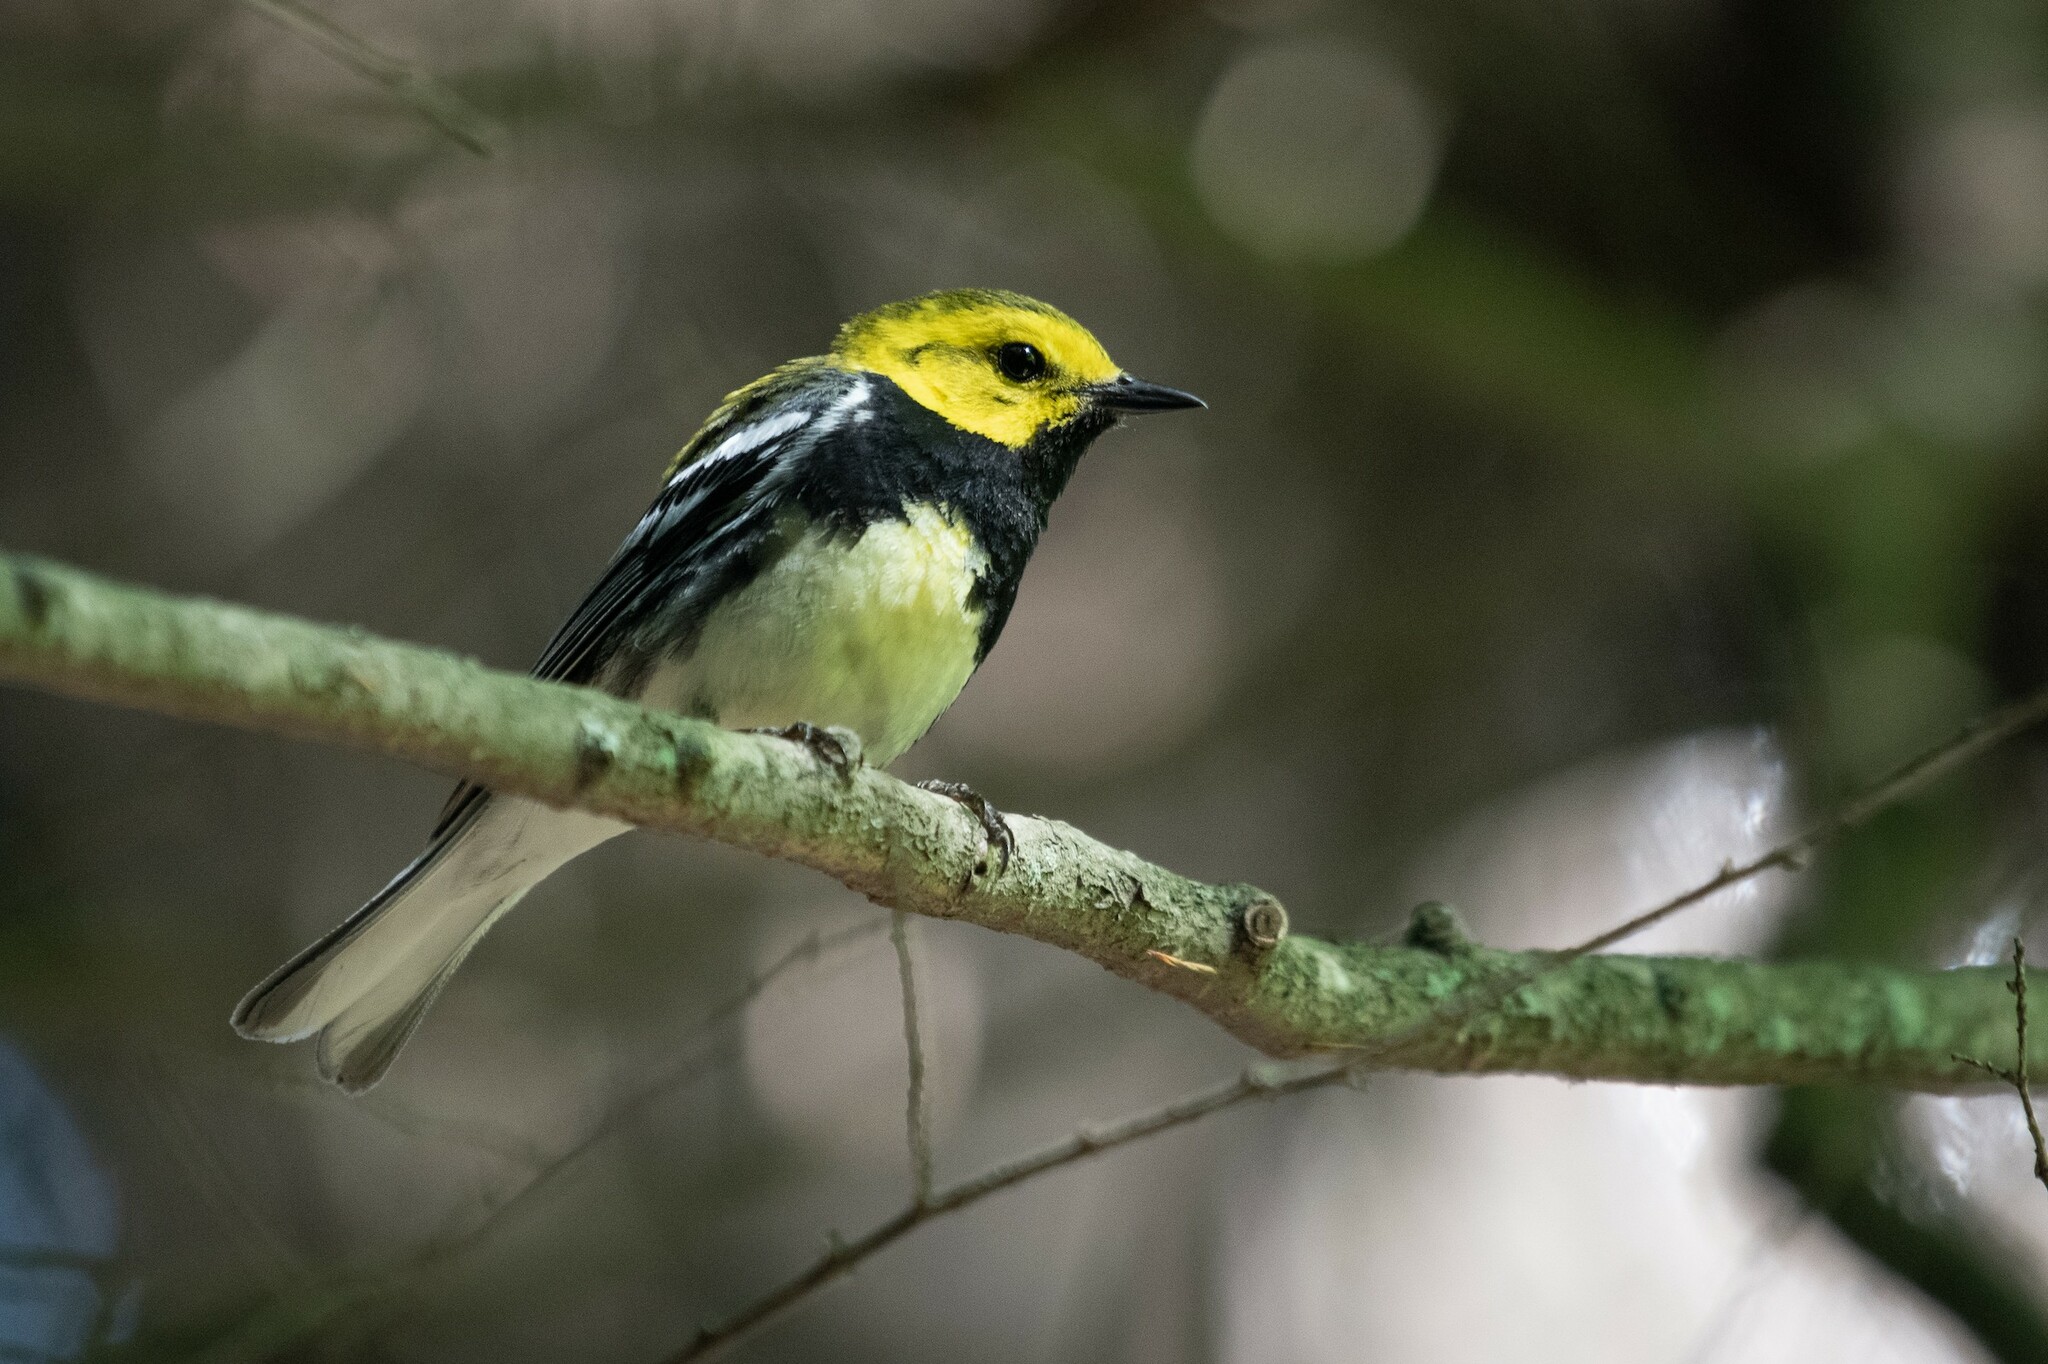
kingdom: Animalia
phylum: Chordata
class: Aves
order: Passeriformes
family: Parulidae
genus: Setophaga
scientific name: Setophaga virens
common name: Black-throated green warbler
